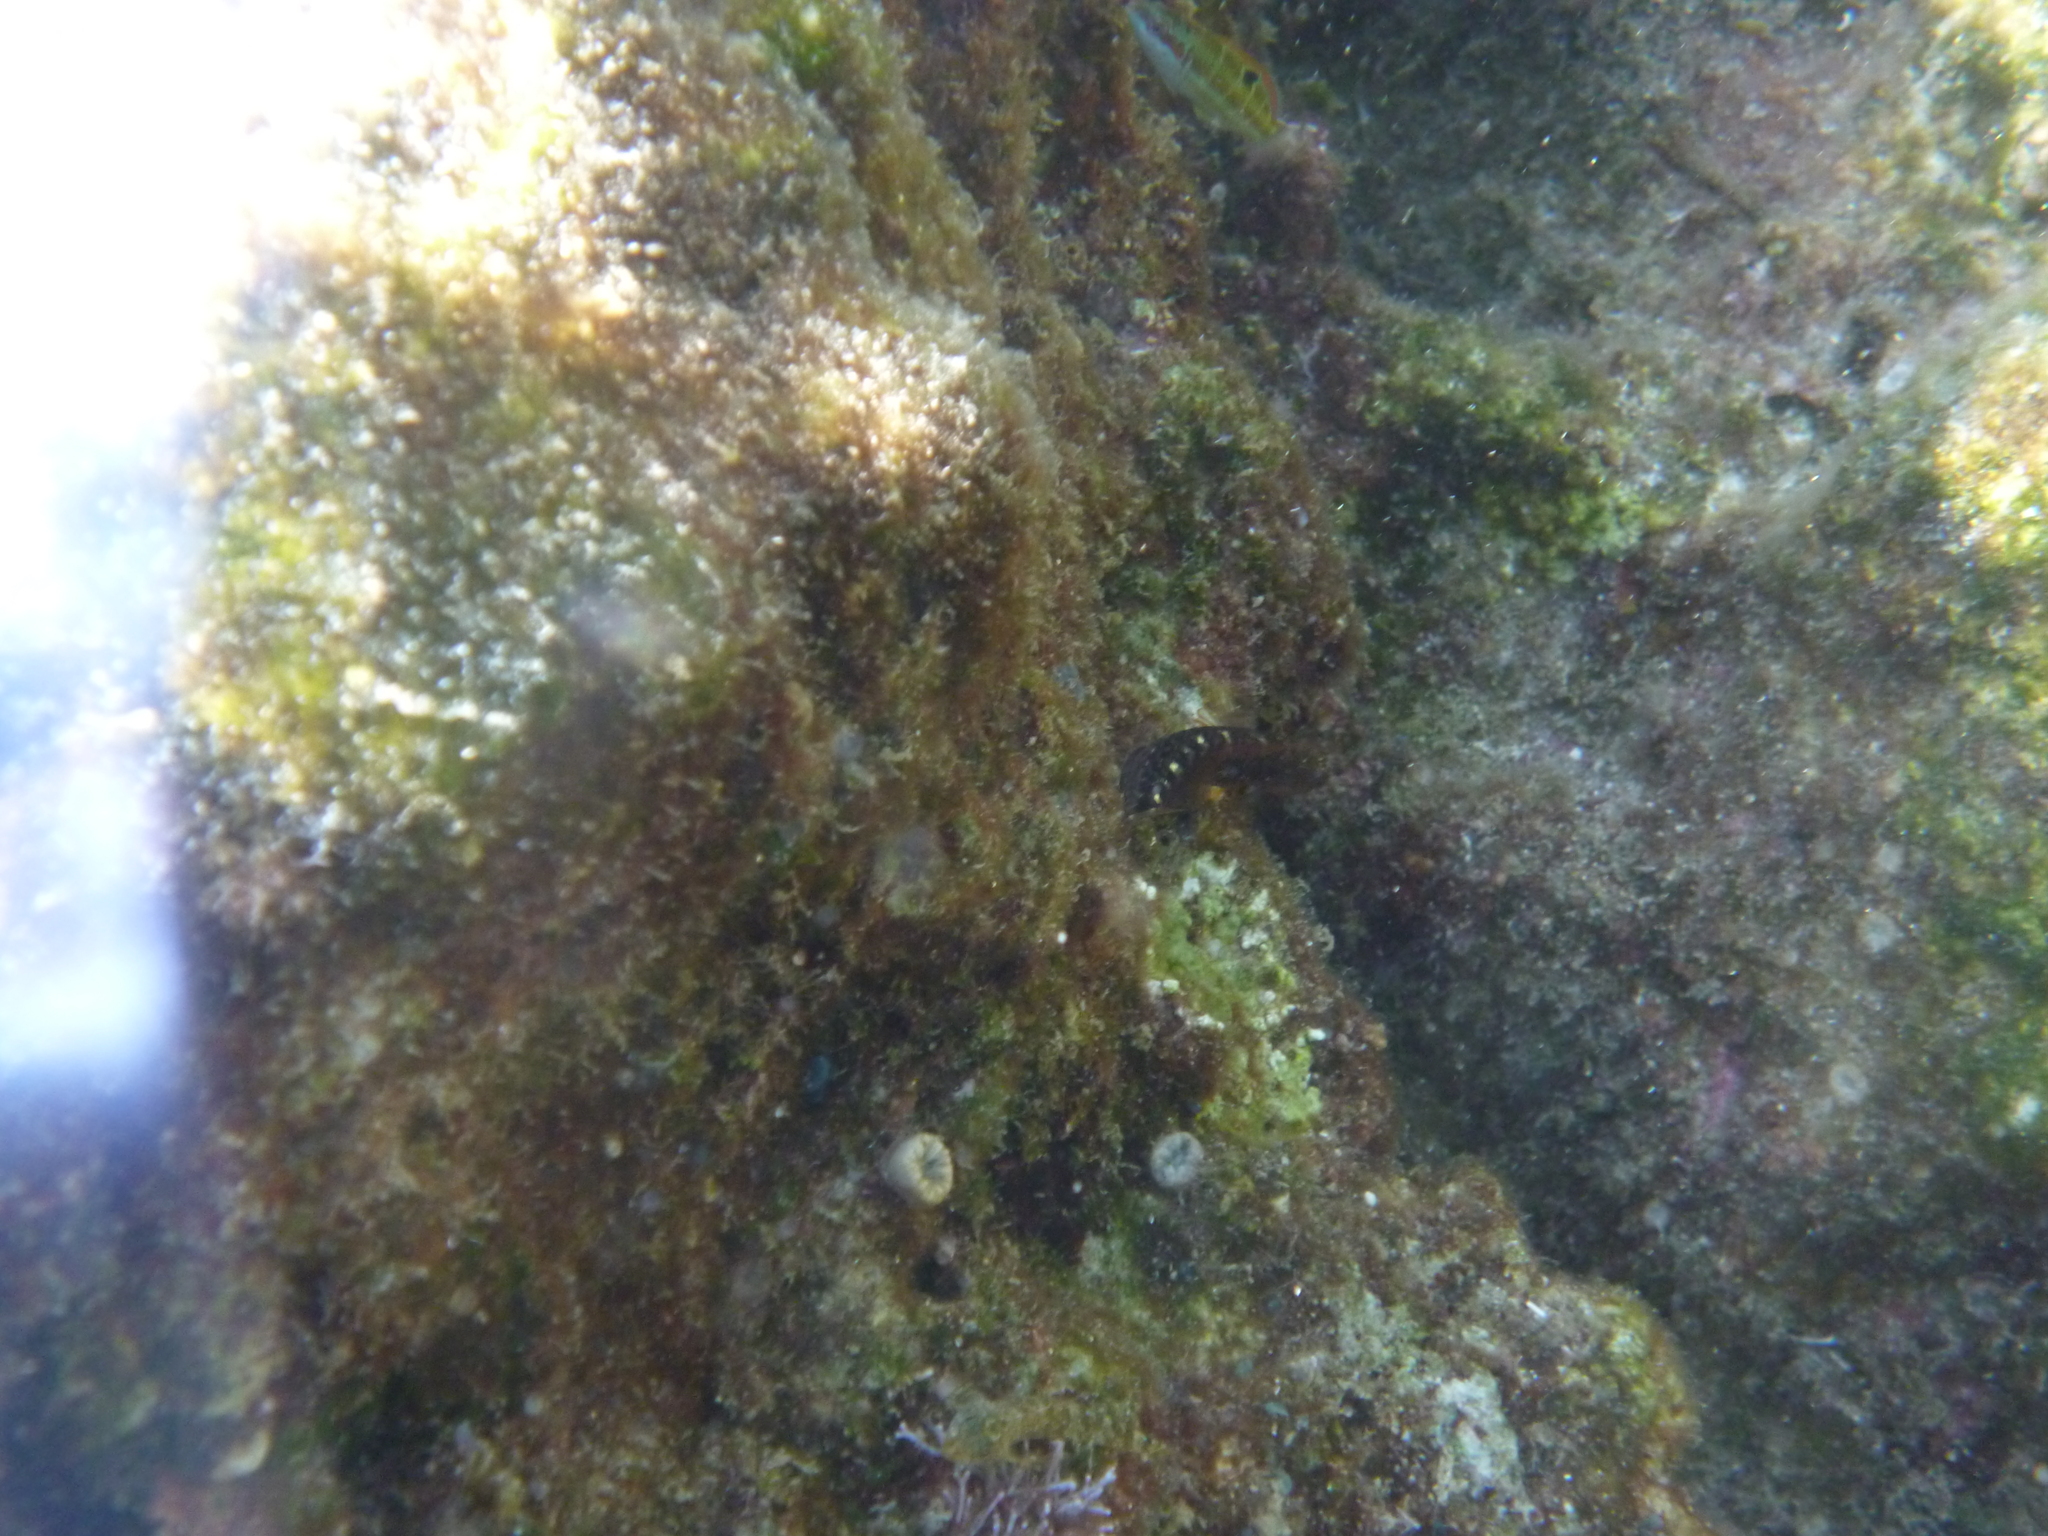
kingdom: Animalia
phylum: Chordata
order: Perciformes
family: Blenniidae
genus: Parablennius
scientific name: Parablennius zvonimiri
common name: Red blenny
